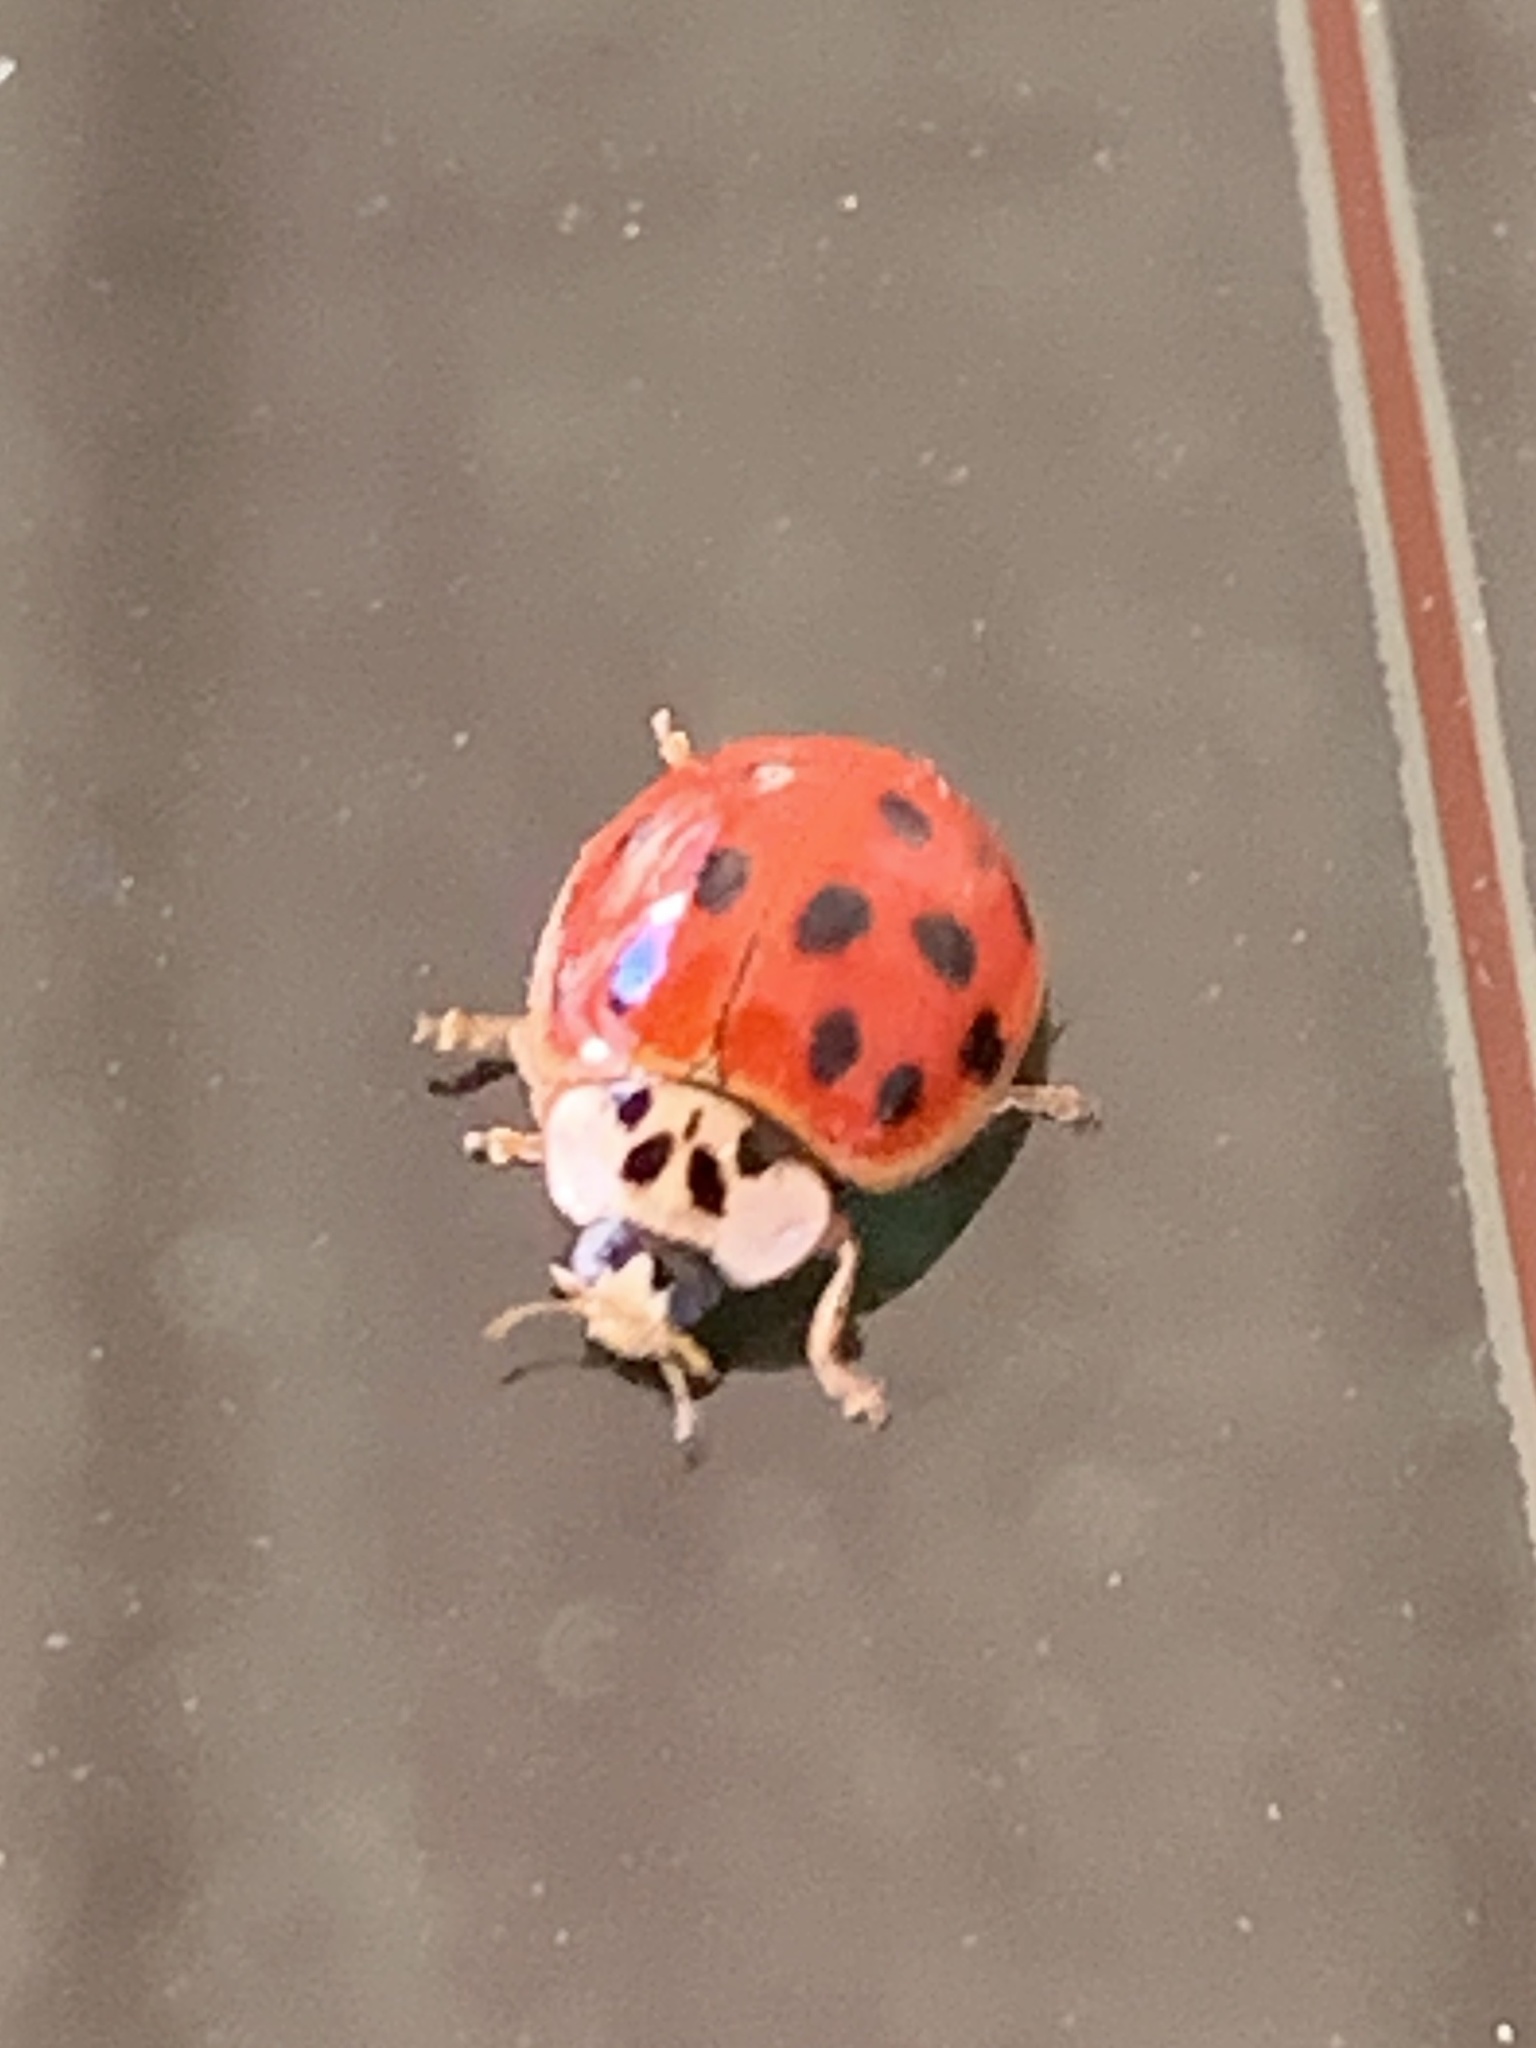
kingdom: Animalia
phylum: Arthropoda
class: Insecta
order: Coleoptera
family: Coccinellidae
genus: Harmonia
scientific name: Harmonia axyridis
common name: Harlequin ladybird
